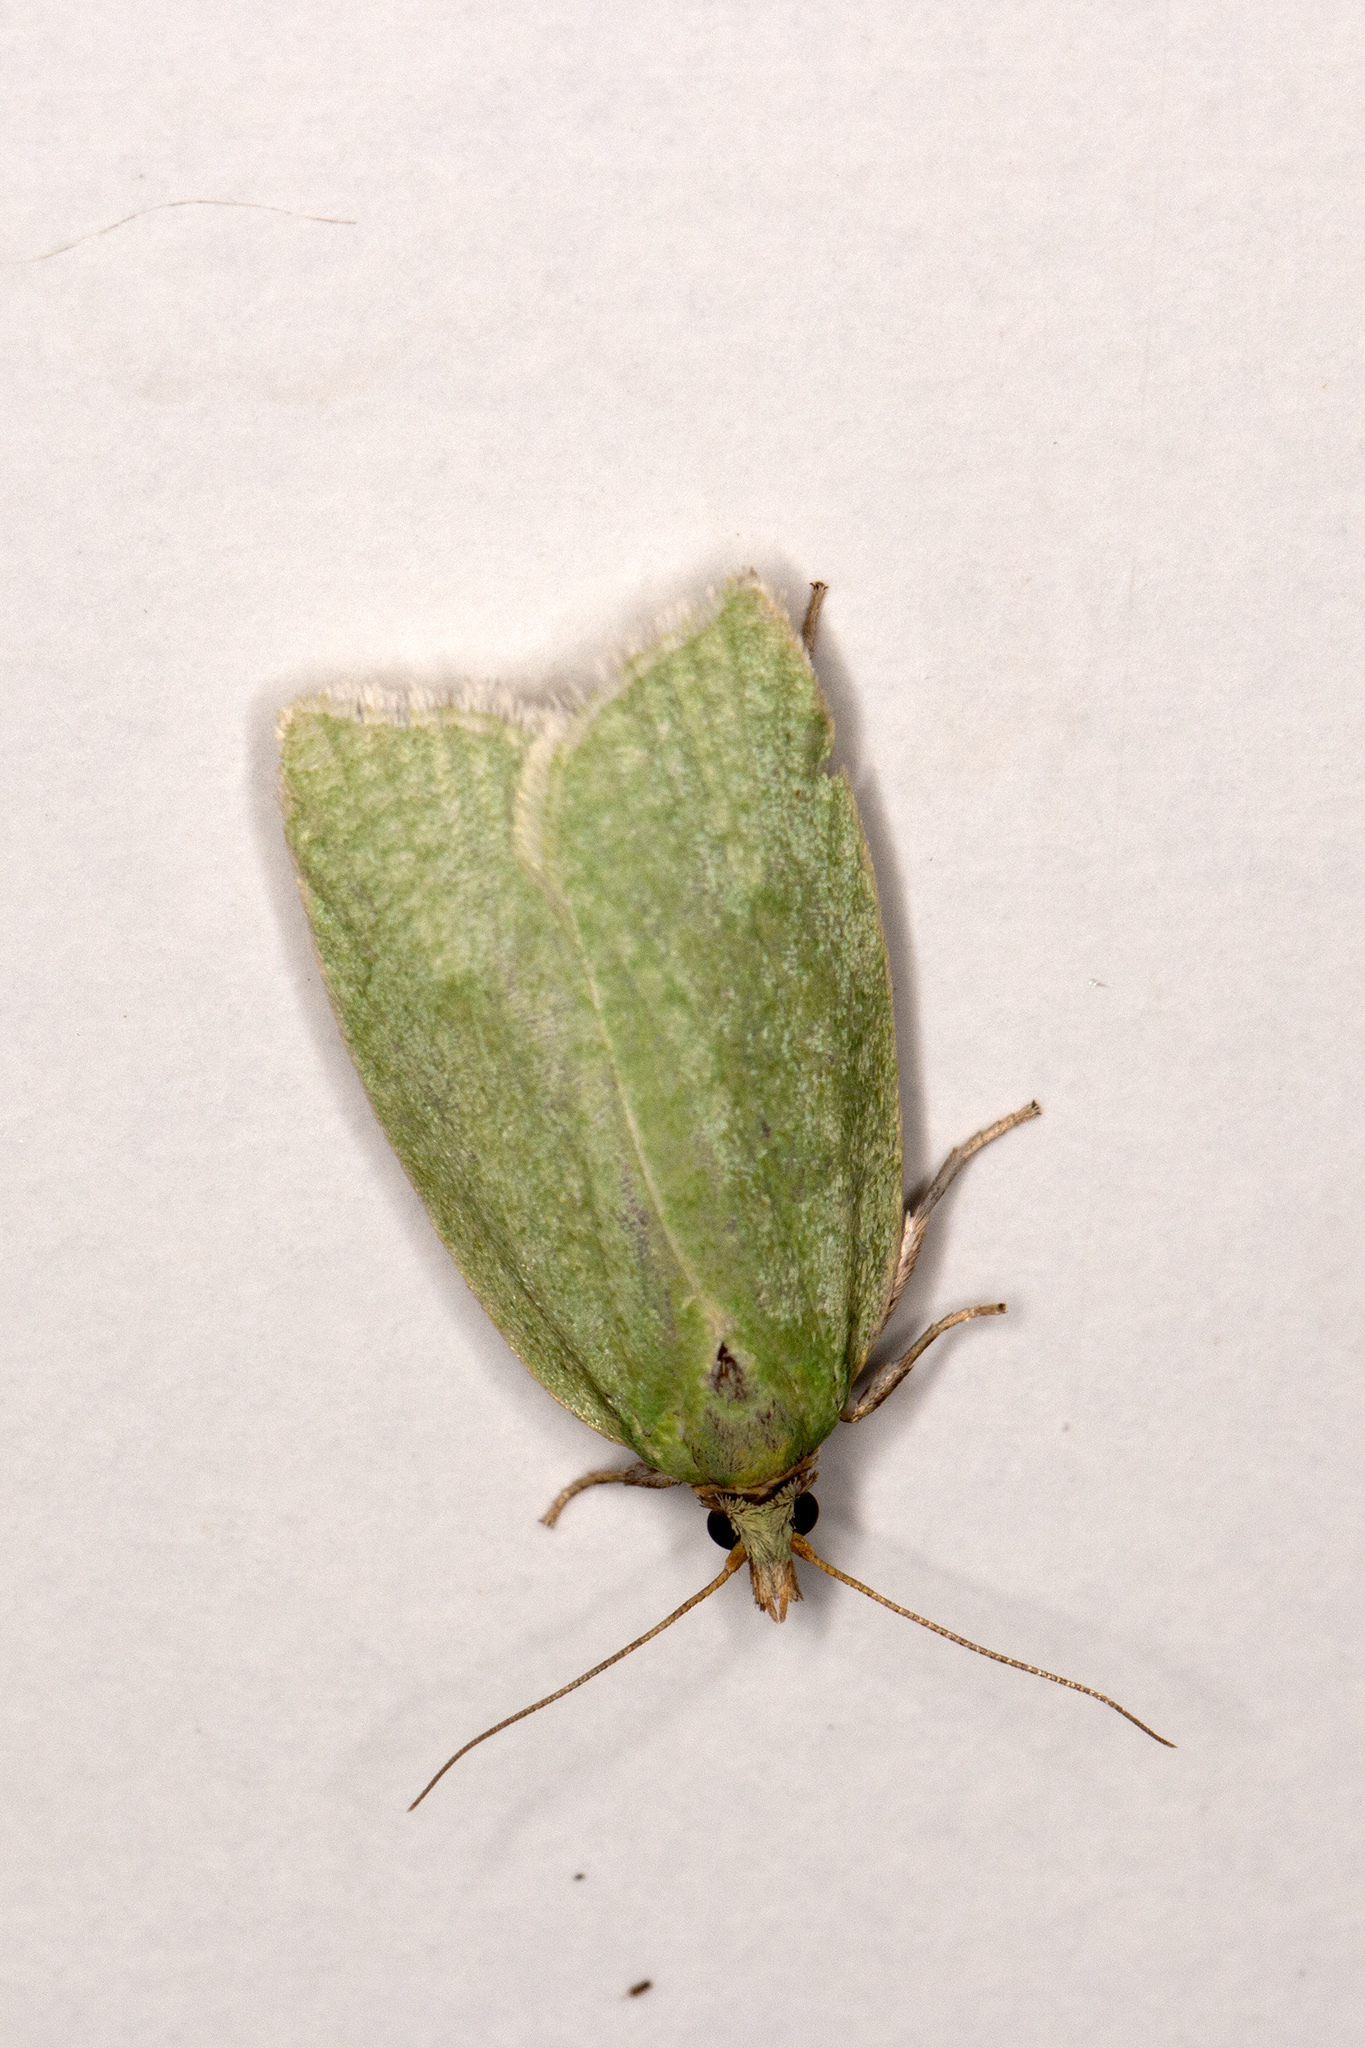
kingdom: Animalia
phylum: Arthropoda
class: Insecta
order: Lepidoptera
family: Tortricidae
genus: Tortrix
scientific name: Tortrix viridana
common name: Green oak tortrix
